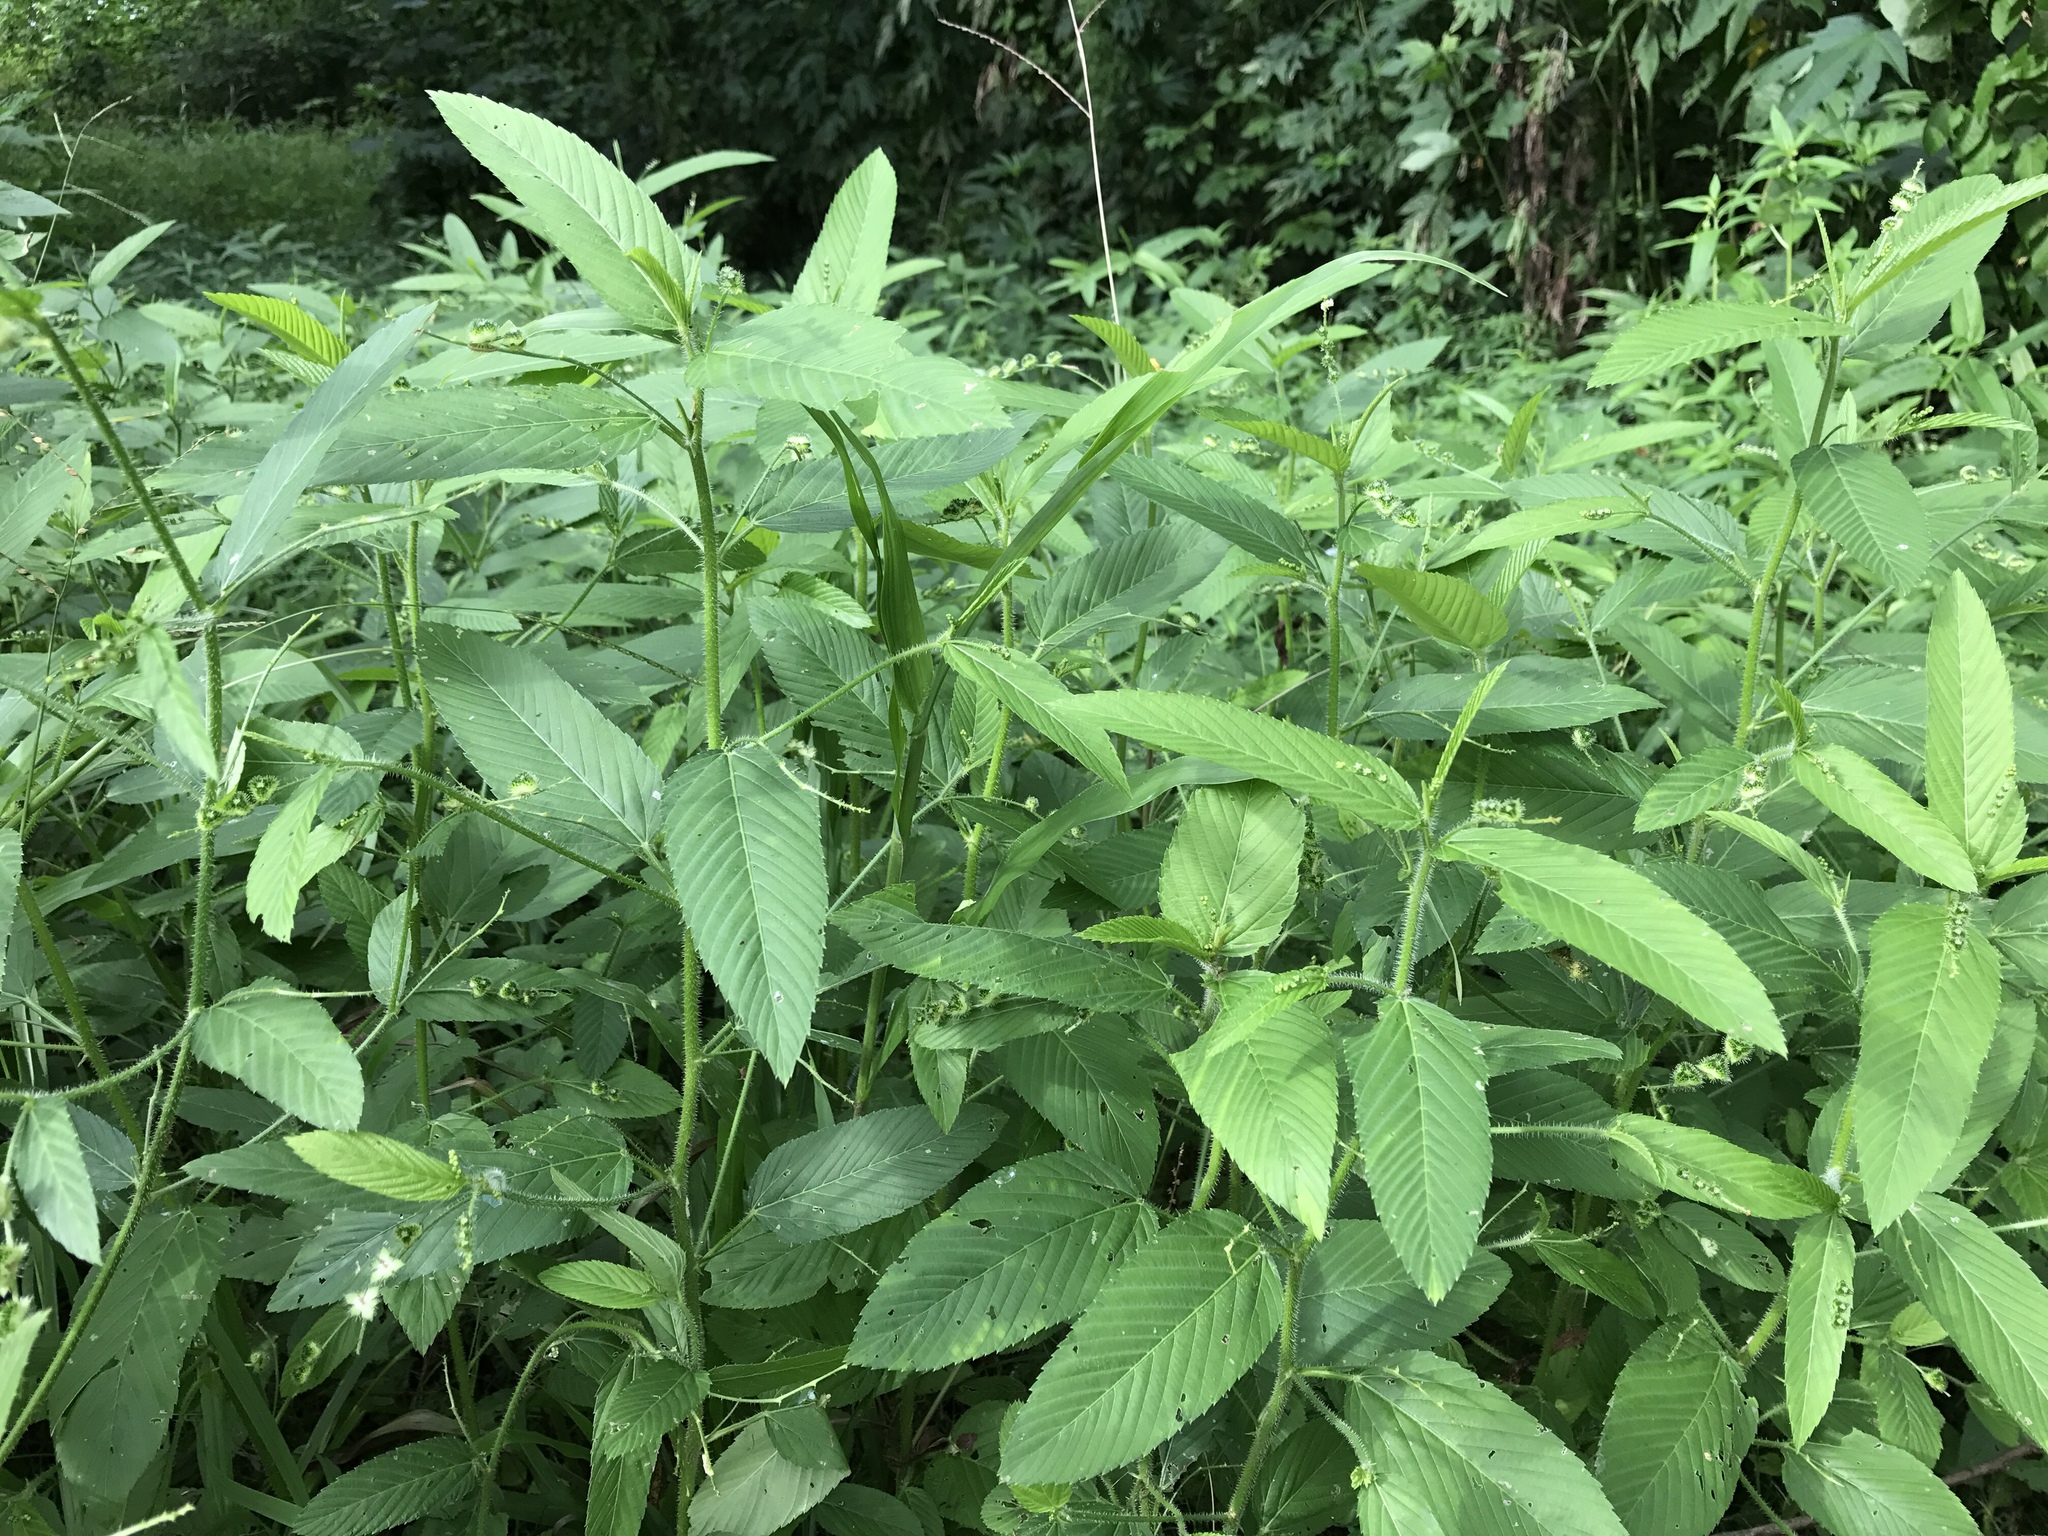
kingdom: Plantae
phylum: Tracheophyta
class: Magnoliopsida
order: Malpighiales
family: Euphorbiaceae
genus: Caperonia
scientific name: Caperonia palustris
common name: Sacatrapo
